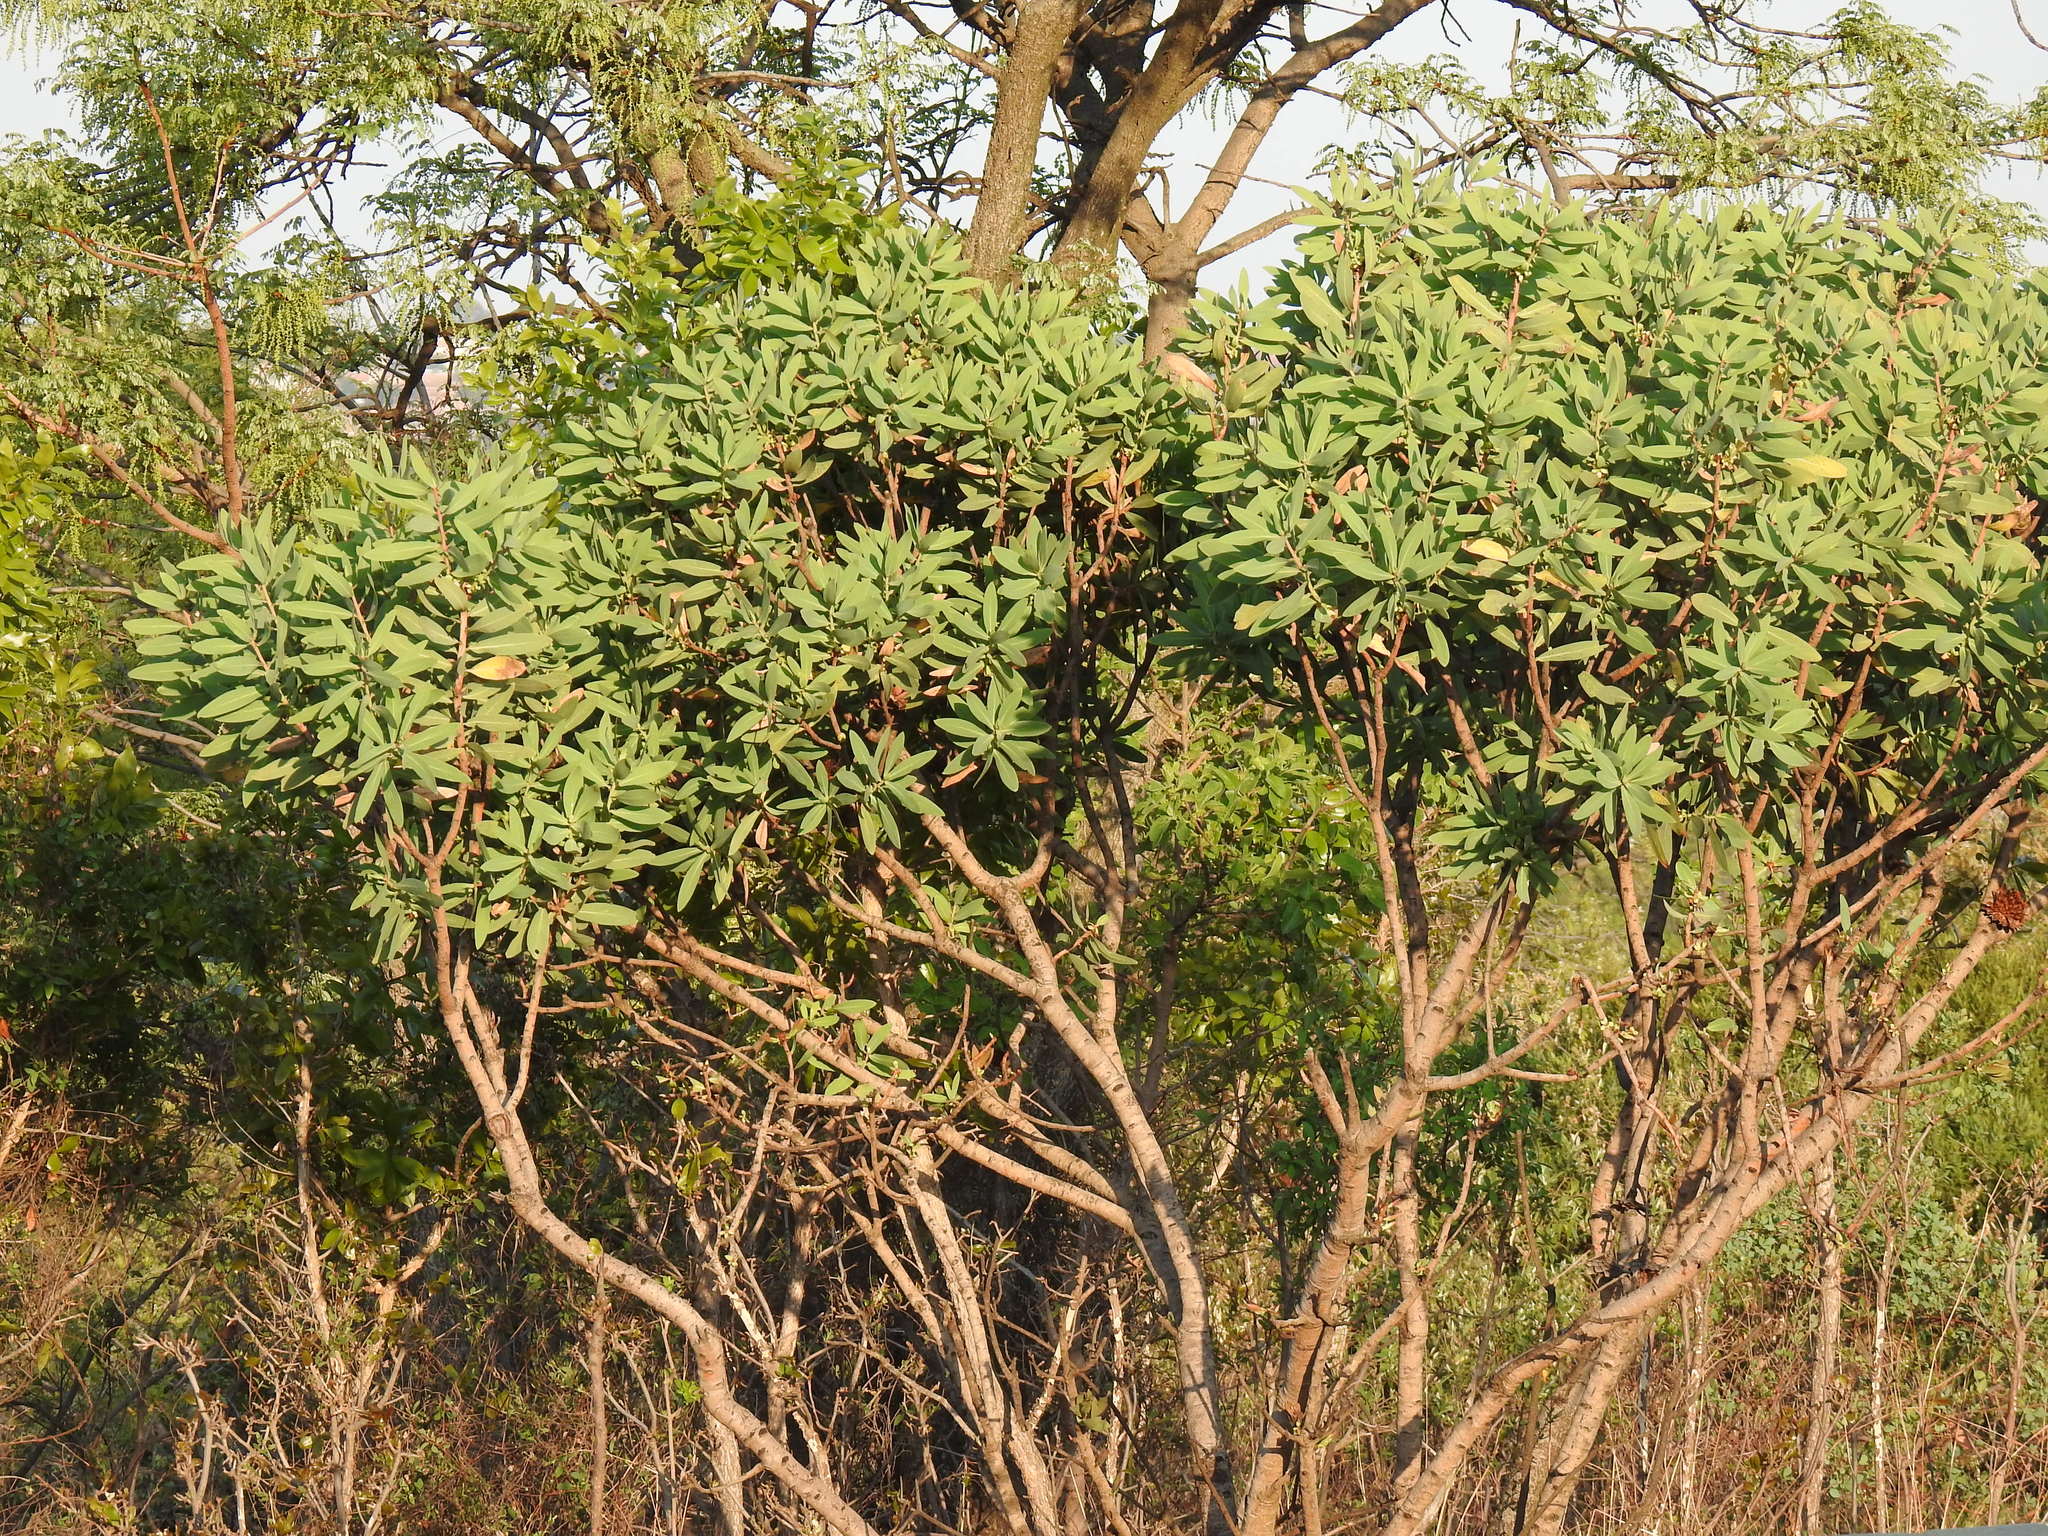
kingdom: Plantae
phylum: Tracheophyta
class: Magnoliopsida
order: Proteales
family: Proteaceae
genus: Protea
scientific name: Protea caffra
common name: Common sugarbush
